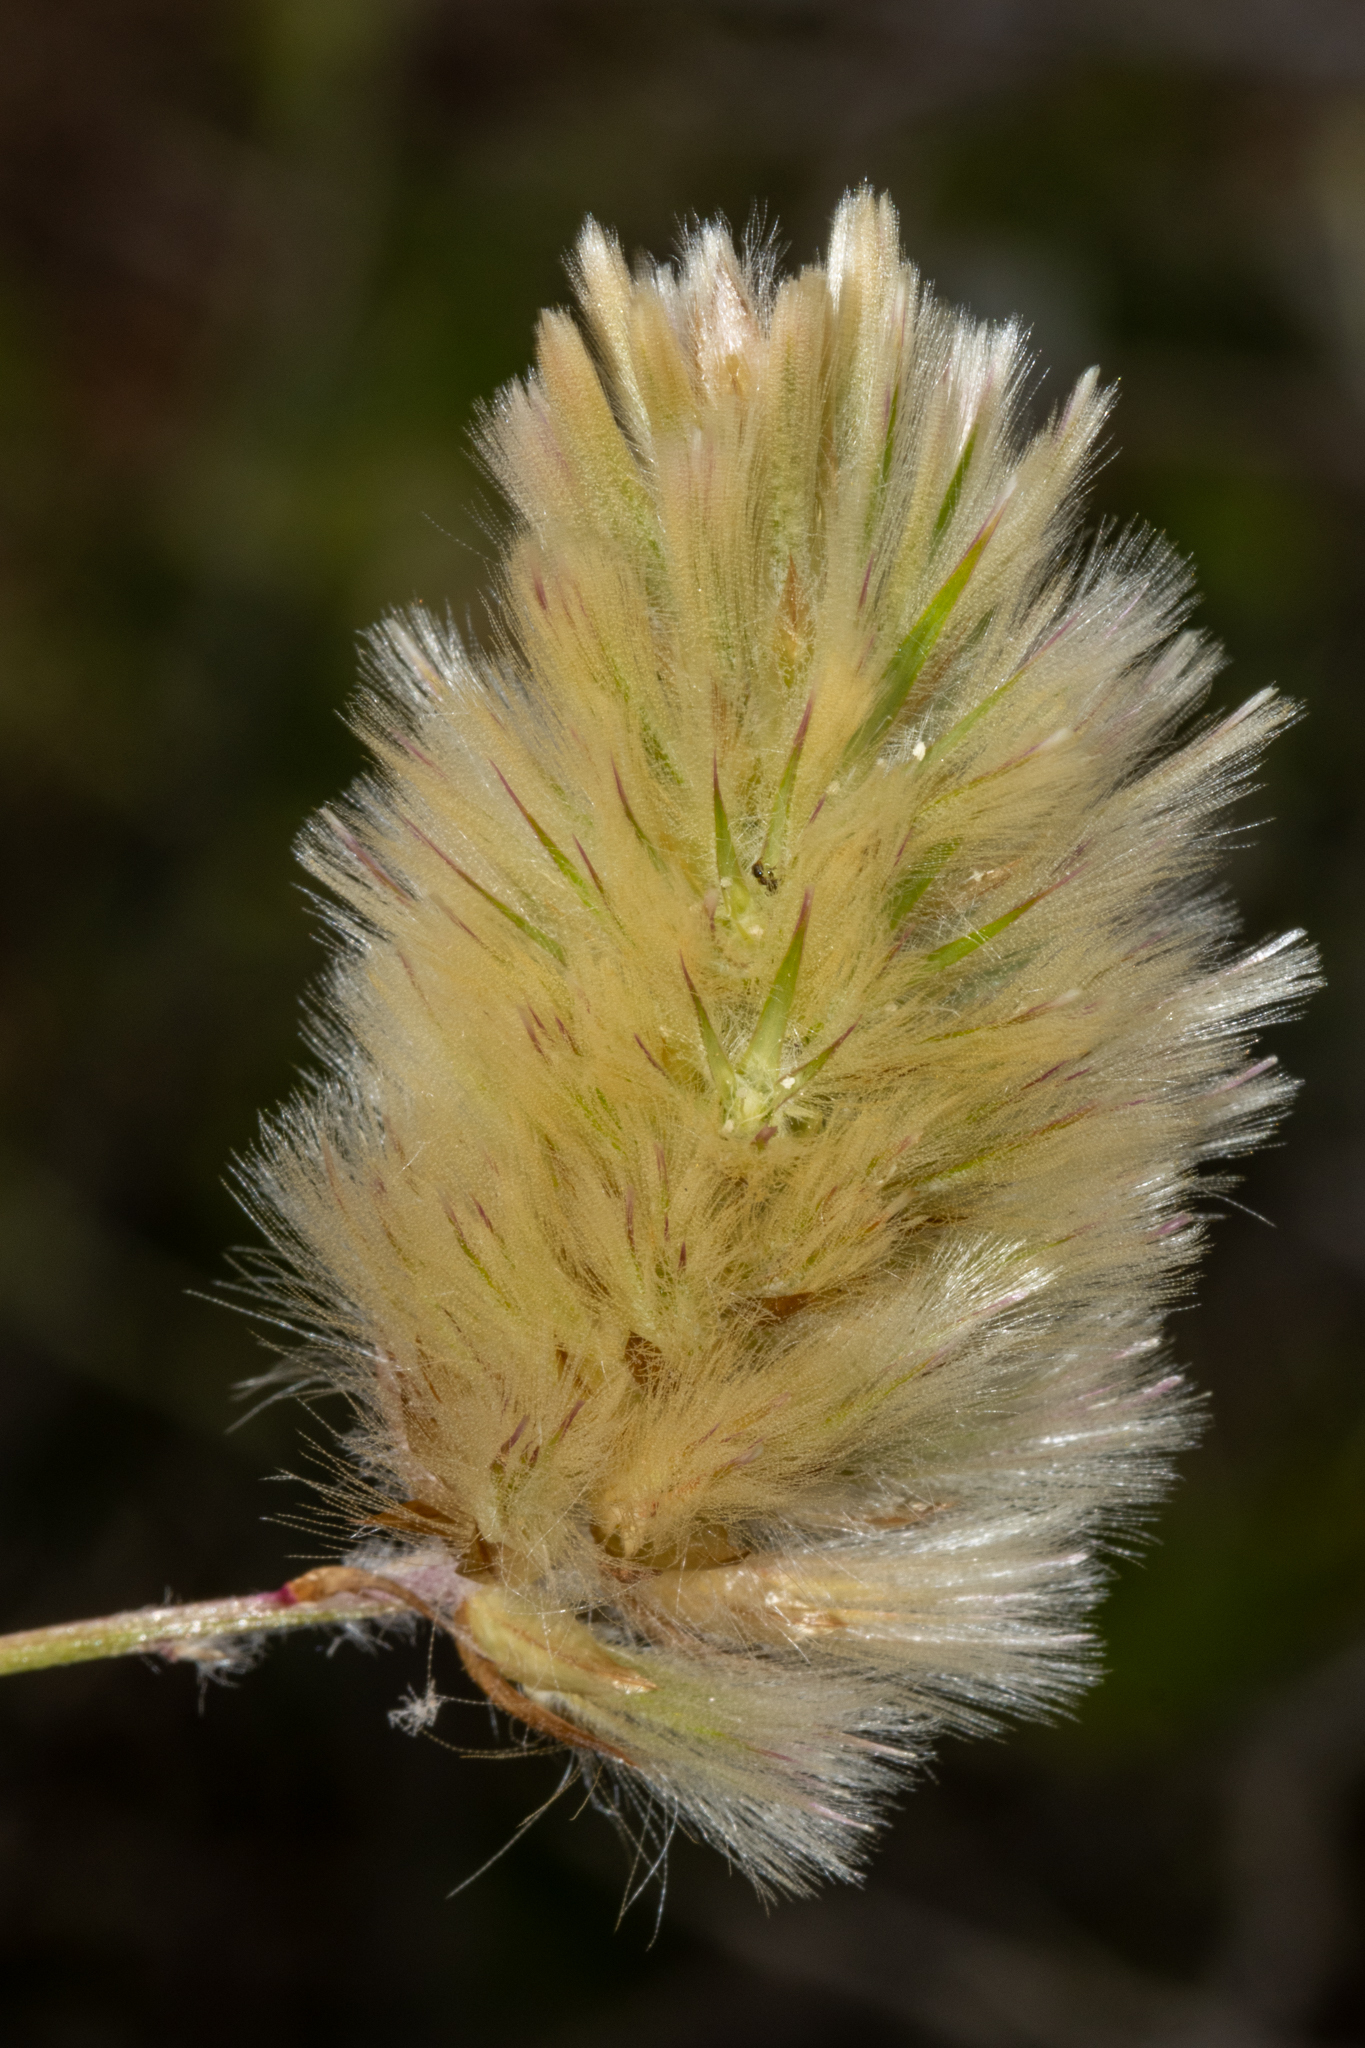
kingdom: Plantae
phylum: Tracheophyta
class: Magnoliopsida
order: Caryophyllales
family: Amaranthaceae
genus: Ptilotus
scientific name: Ptilotus spathulatus
